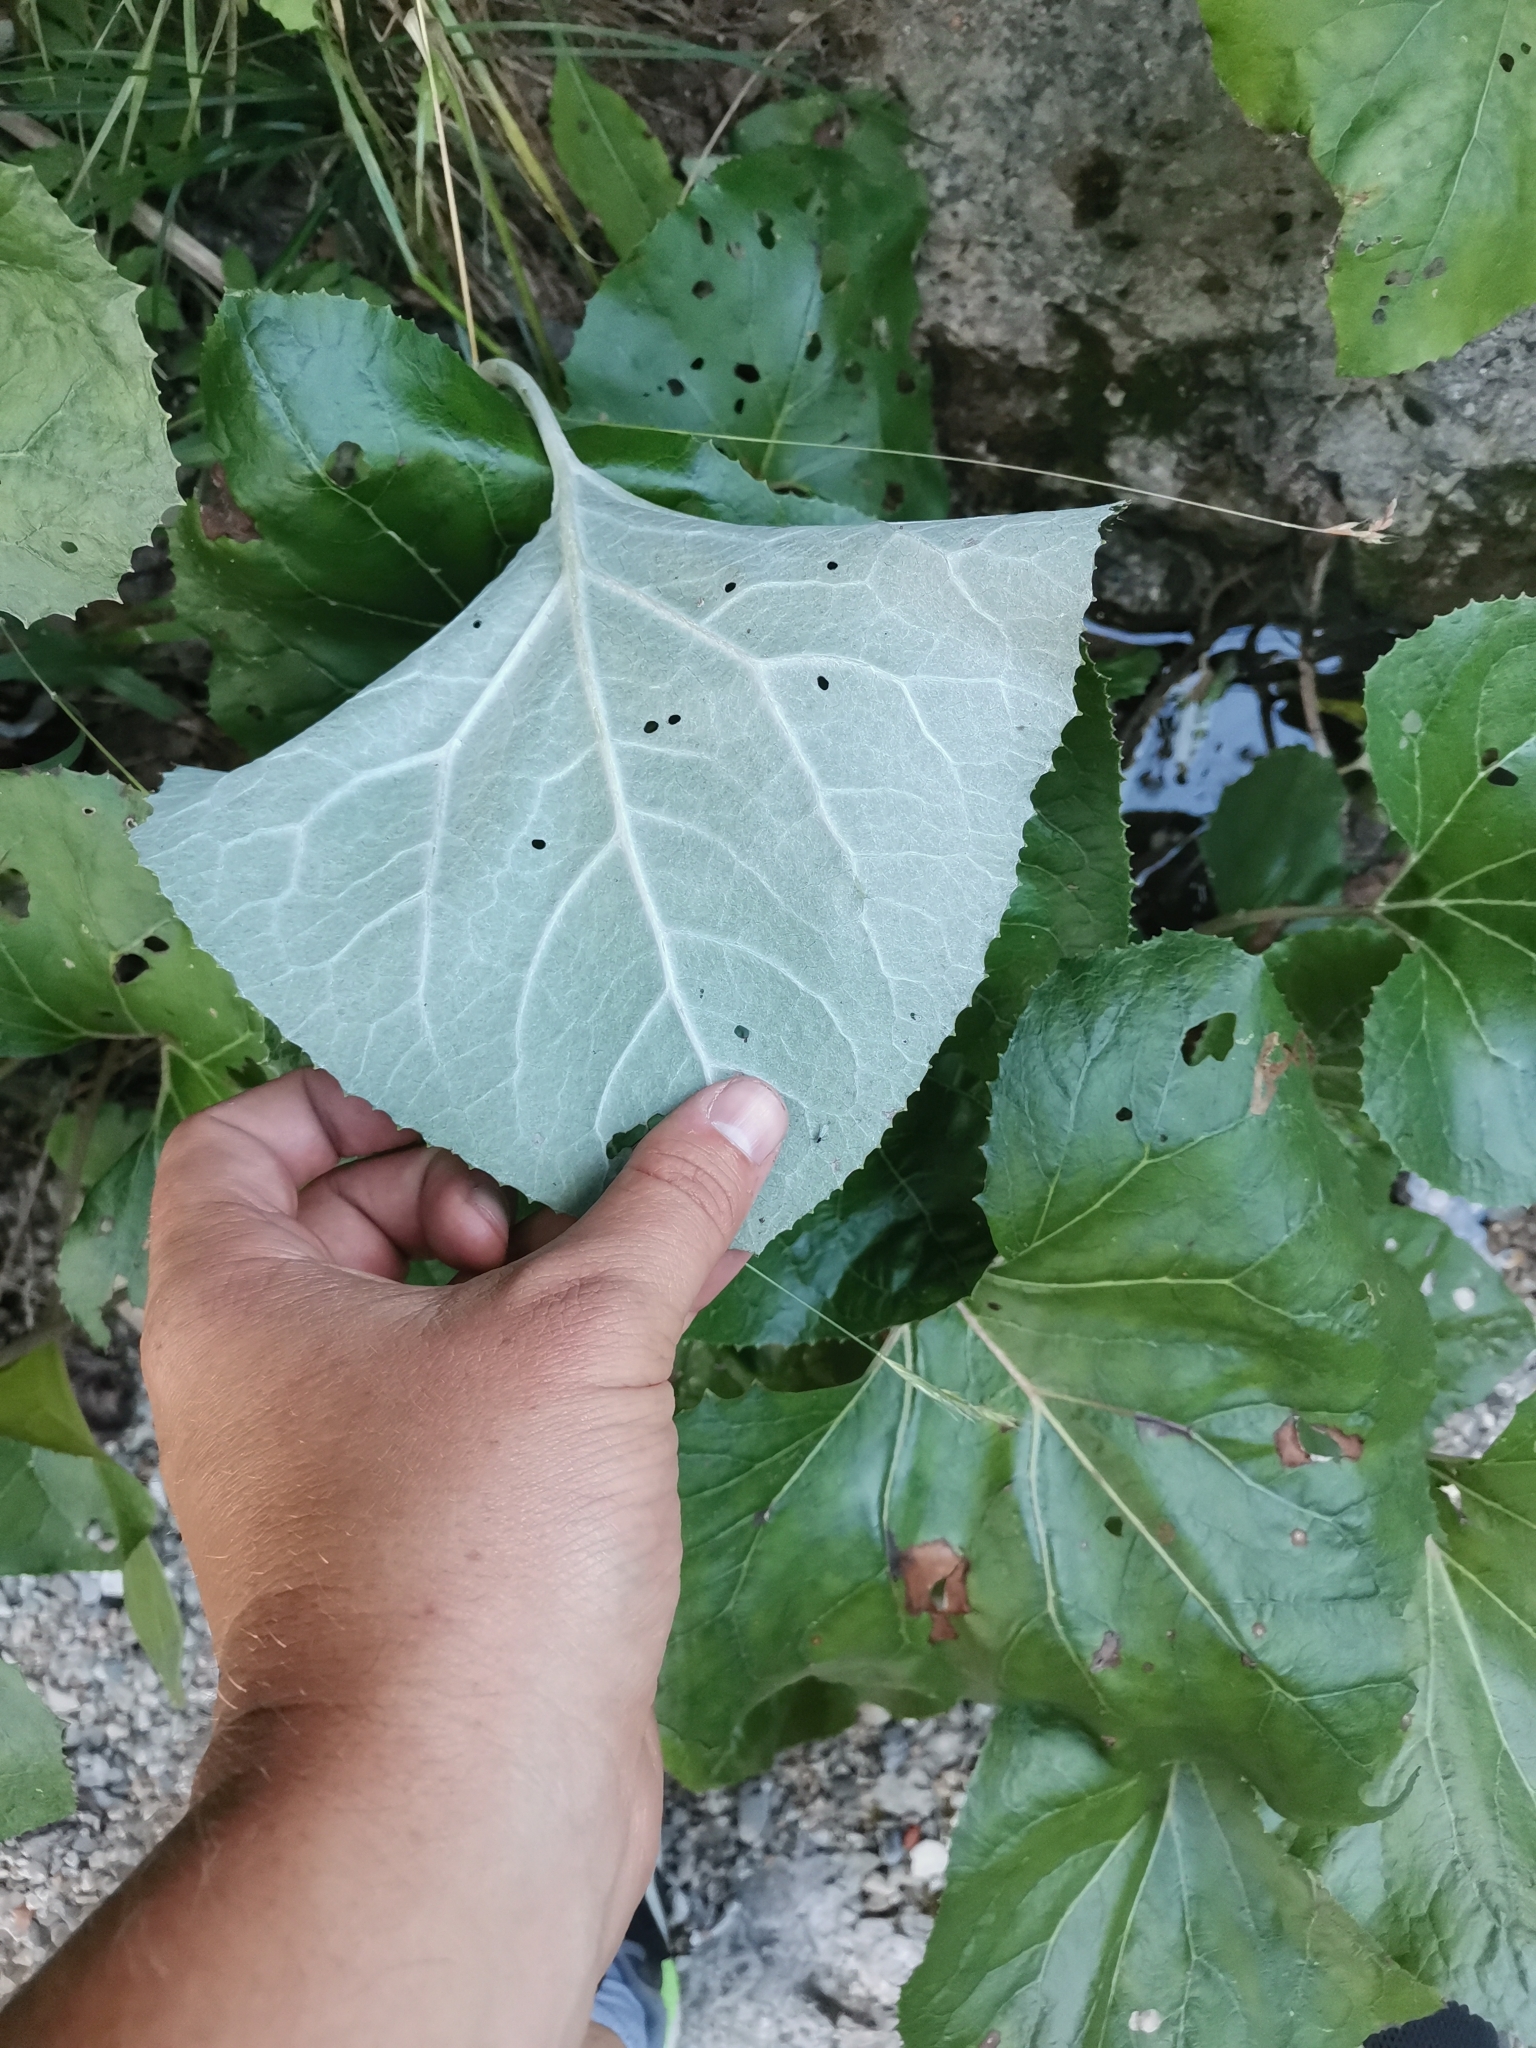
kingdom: Plantae
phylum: Tracheophyta
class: Magnoliopsida
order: Asterales
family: Asteraceae
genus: Petasites
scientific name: Petasites paradoxus
